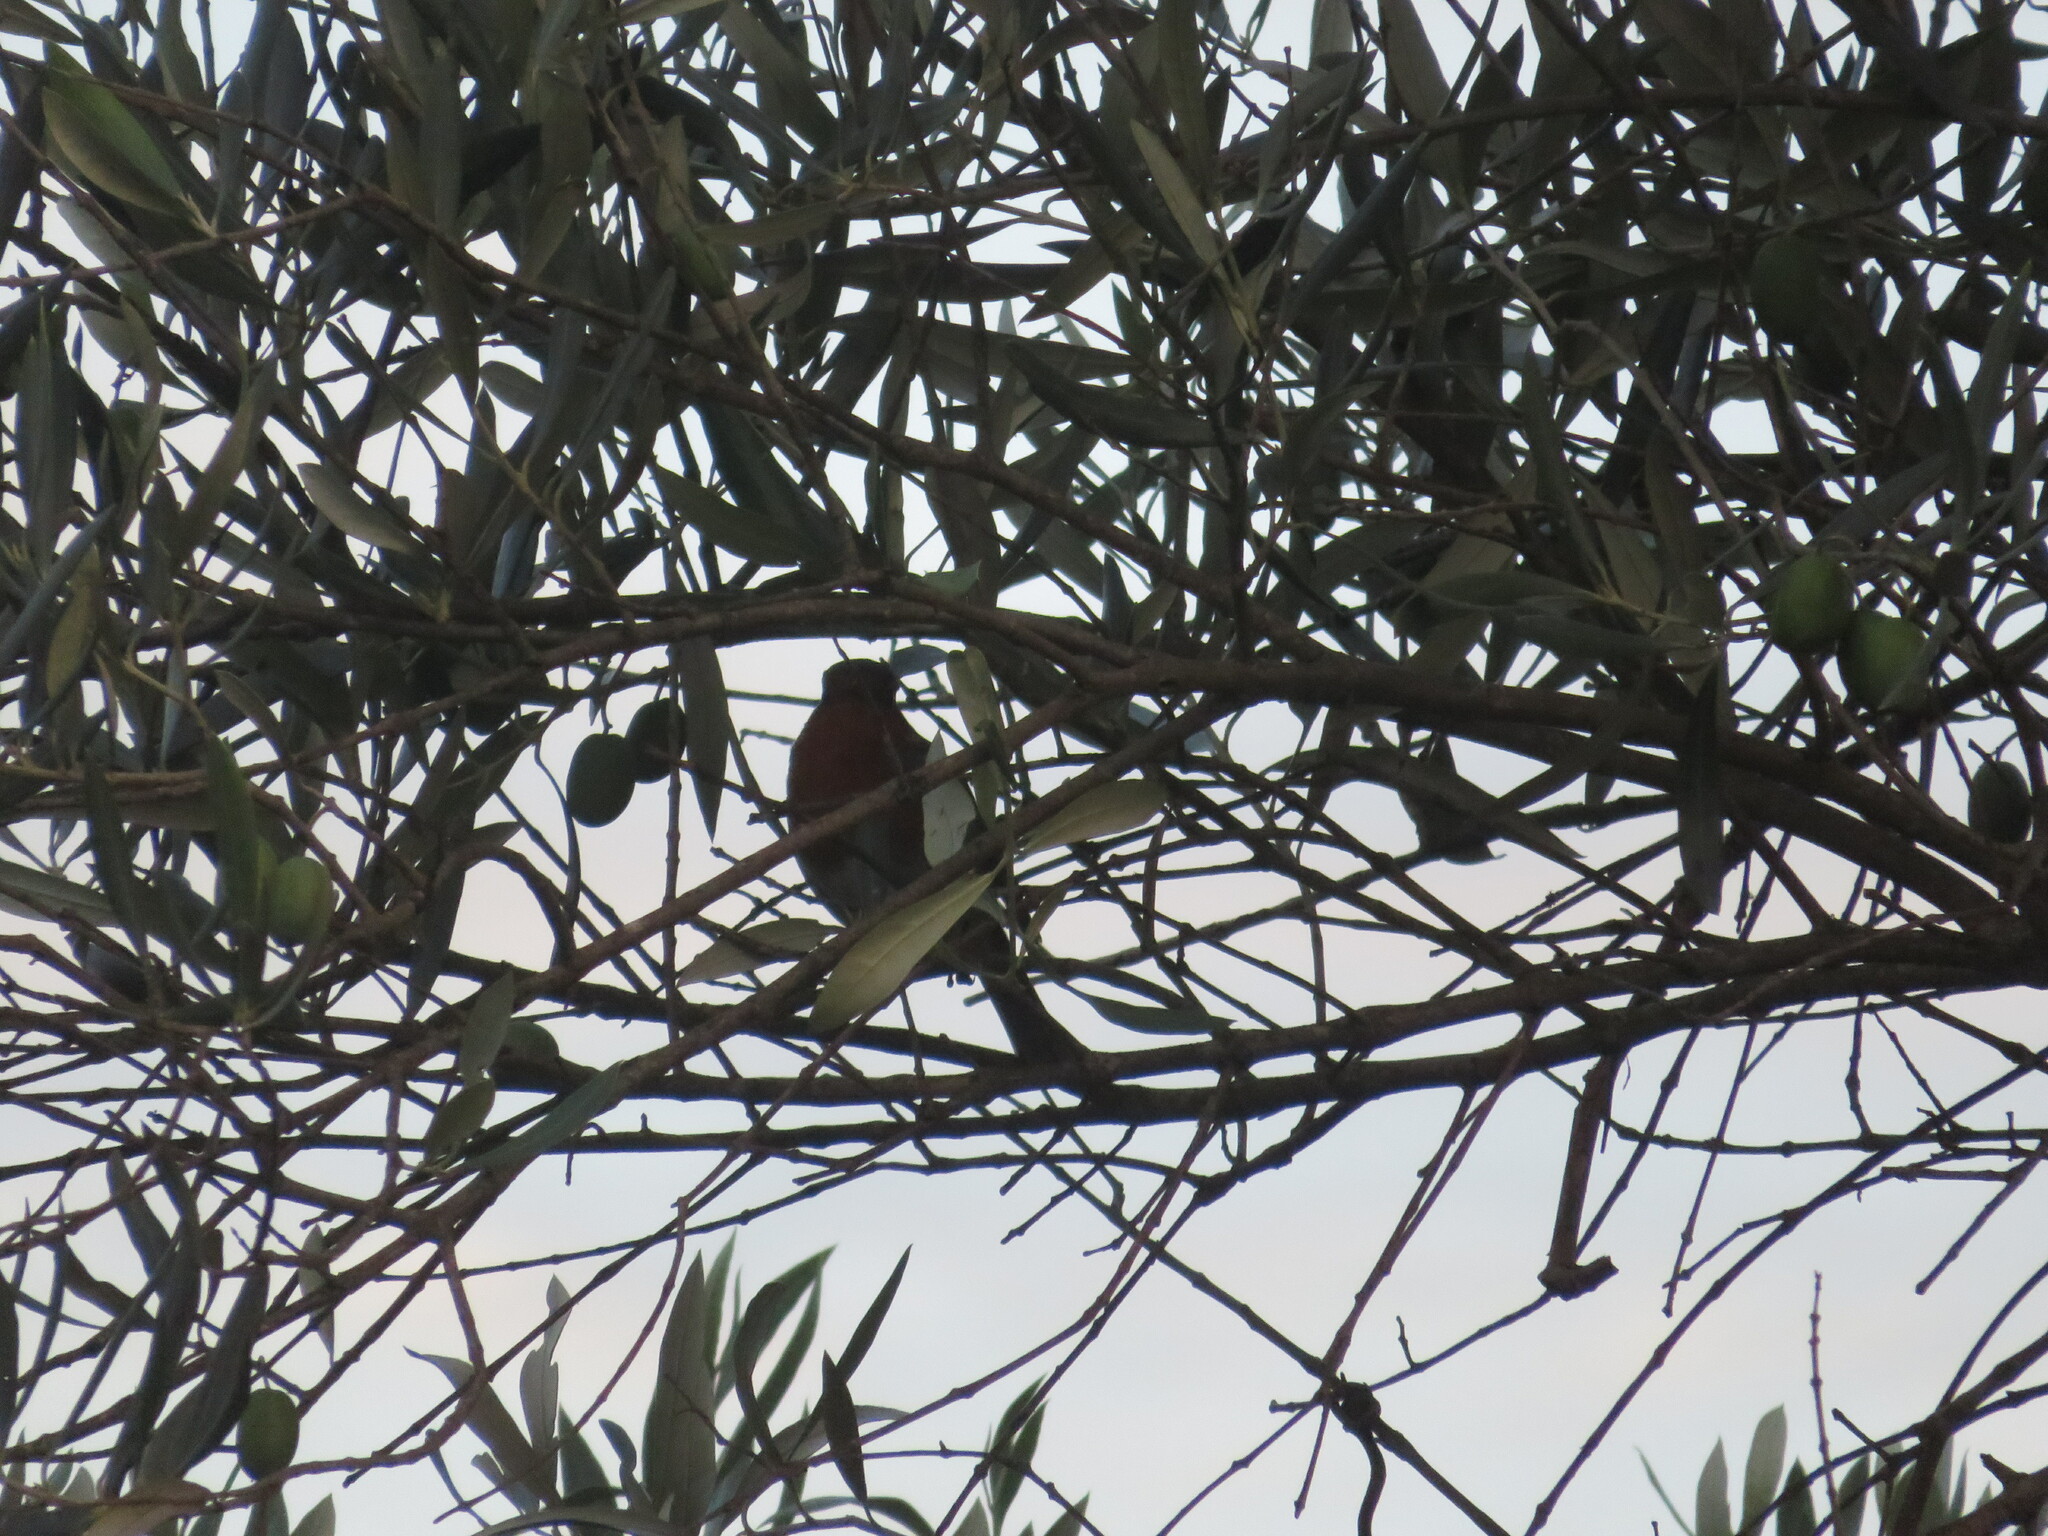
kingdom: Animalia
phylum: Chordata
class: Aves
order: Passeriformes
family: Muscicapidae
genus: Erithacus
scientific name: Erithacus rubecula
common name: European robin
